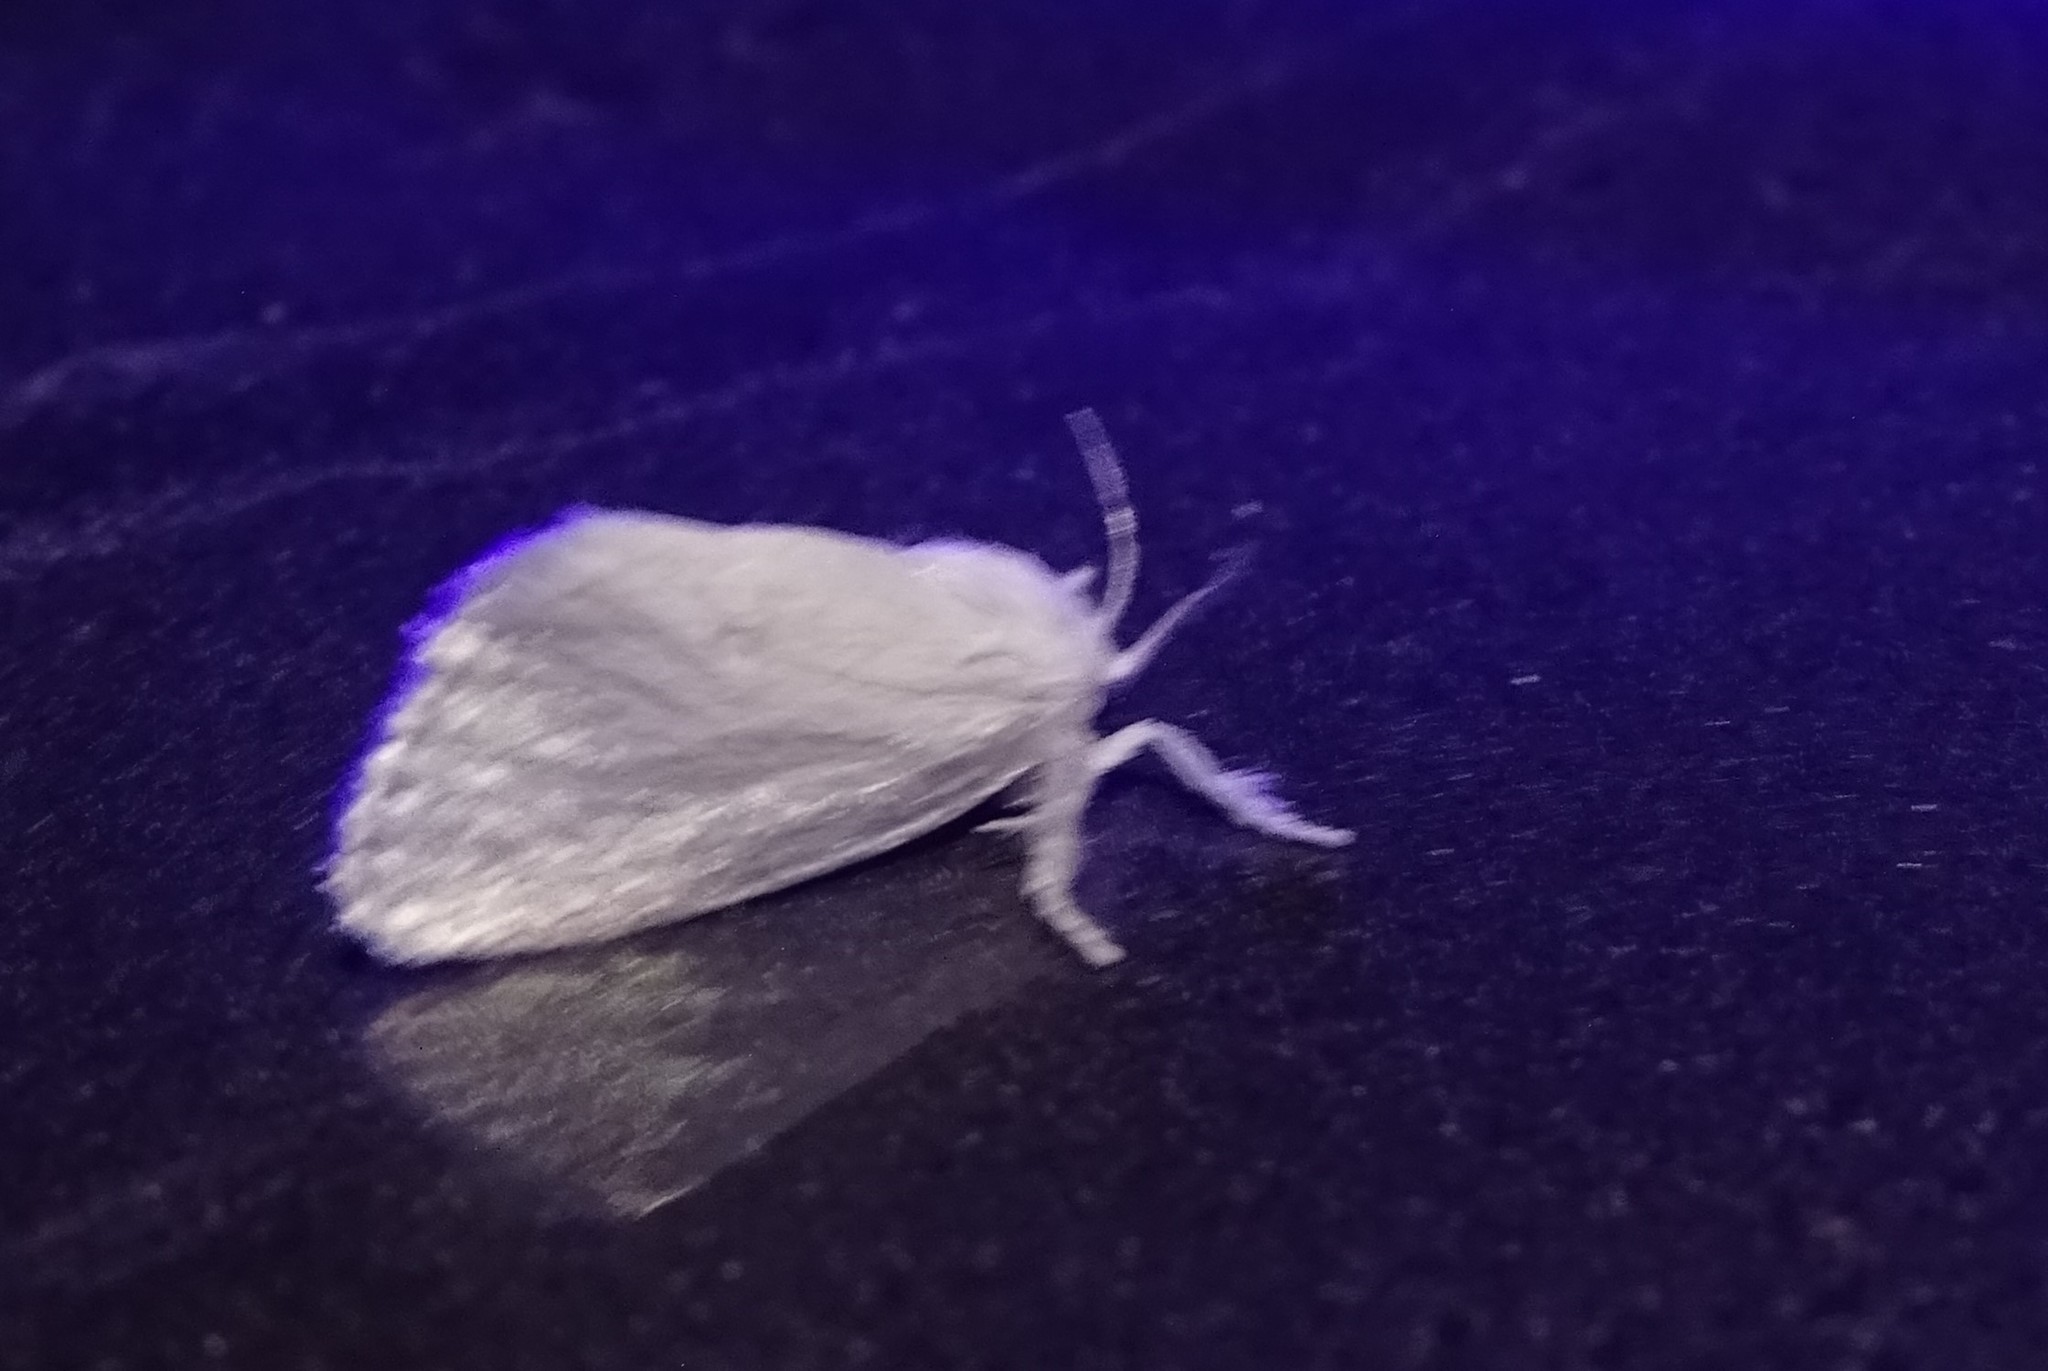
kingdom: Animalia
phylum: Arthropoda
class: Insecta
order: Lepidoptera
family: Limacodidae
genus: Alarodia
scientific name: Alarodia slossoniae
